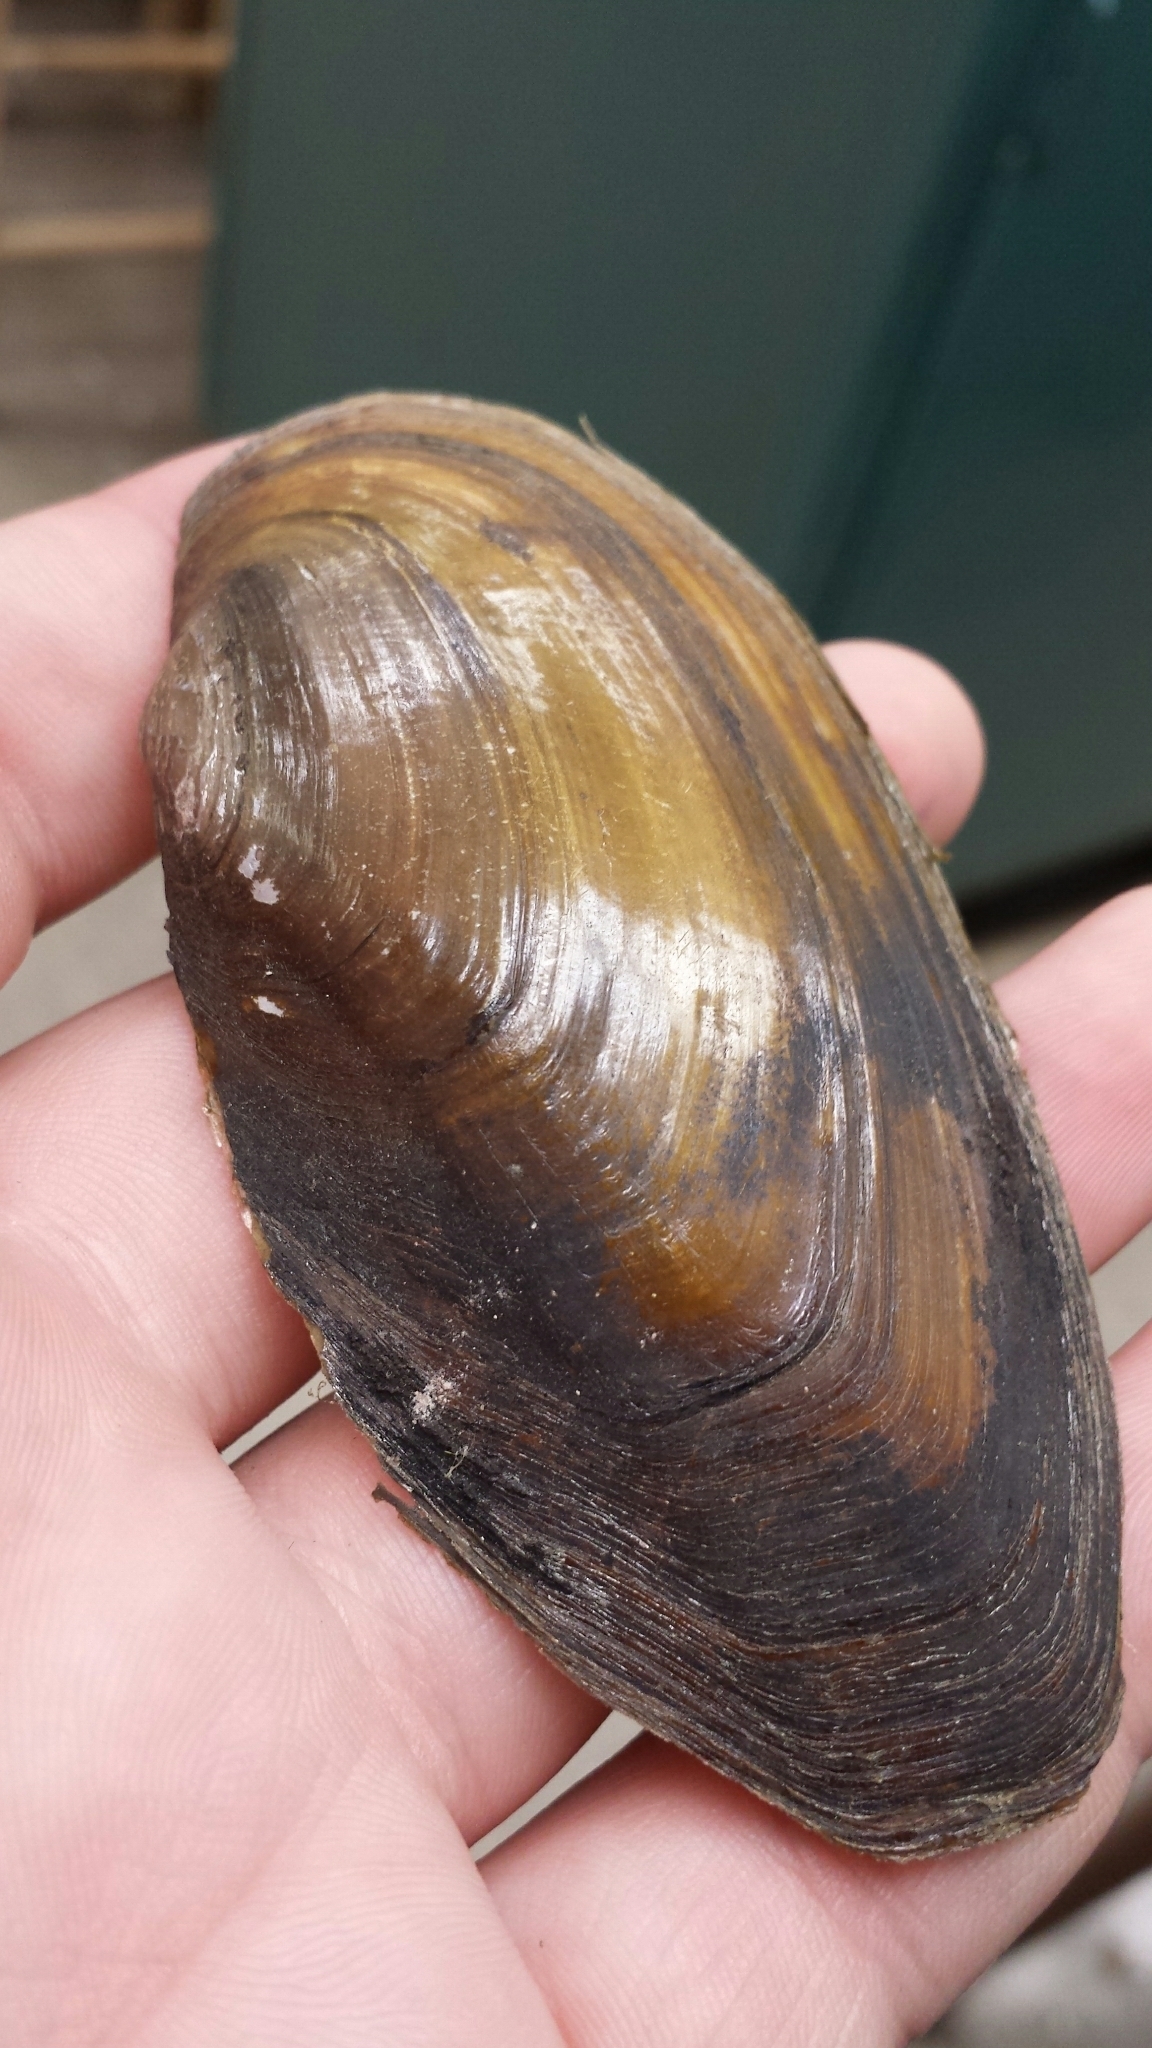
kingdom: Animalia
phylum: Mollusca
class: Bivalvia
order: Unionida
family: Unionidae
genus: Utterbackiana
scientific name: Utterbackiana implicata
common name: Alewife floater
